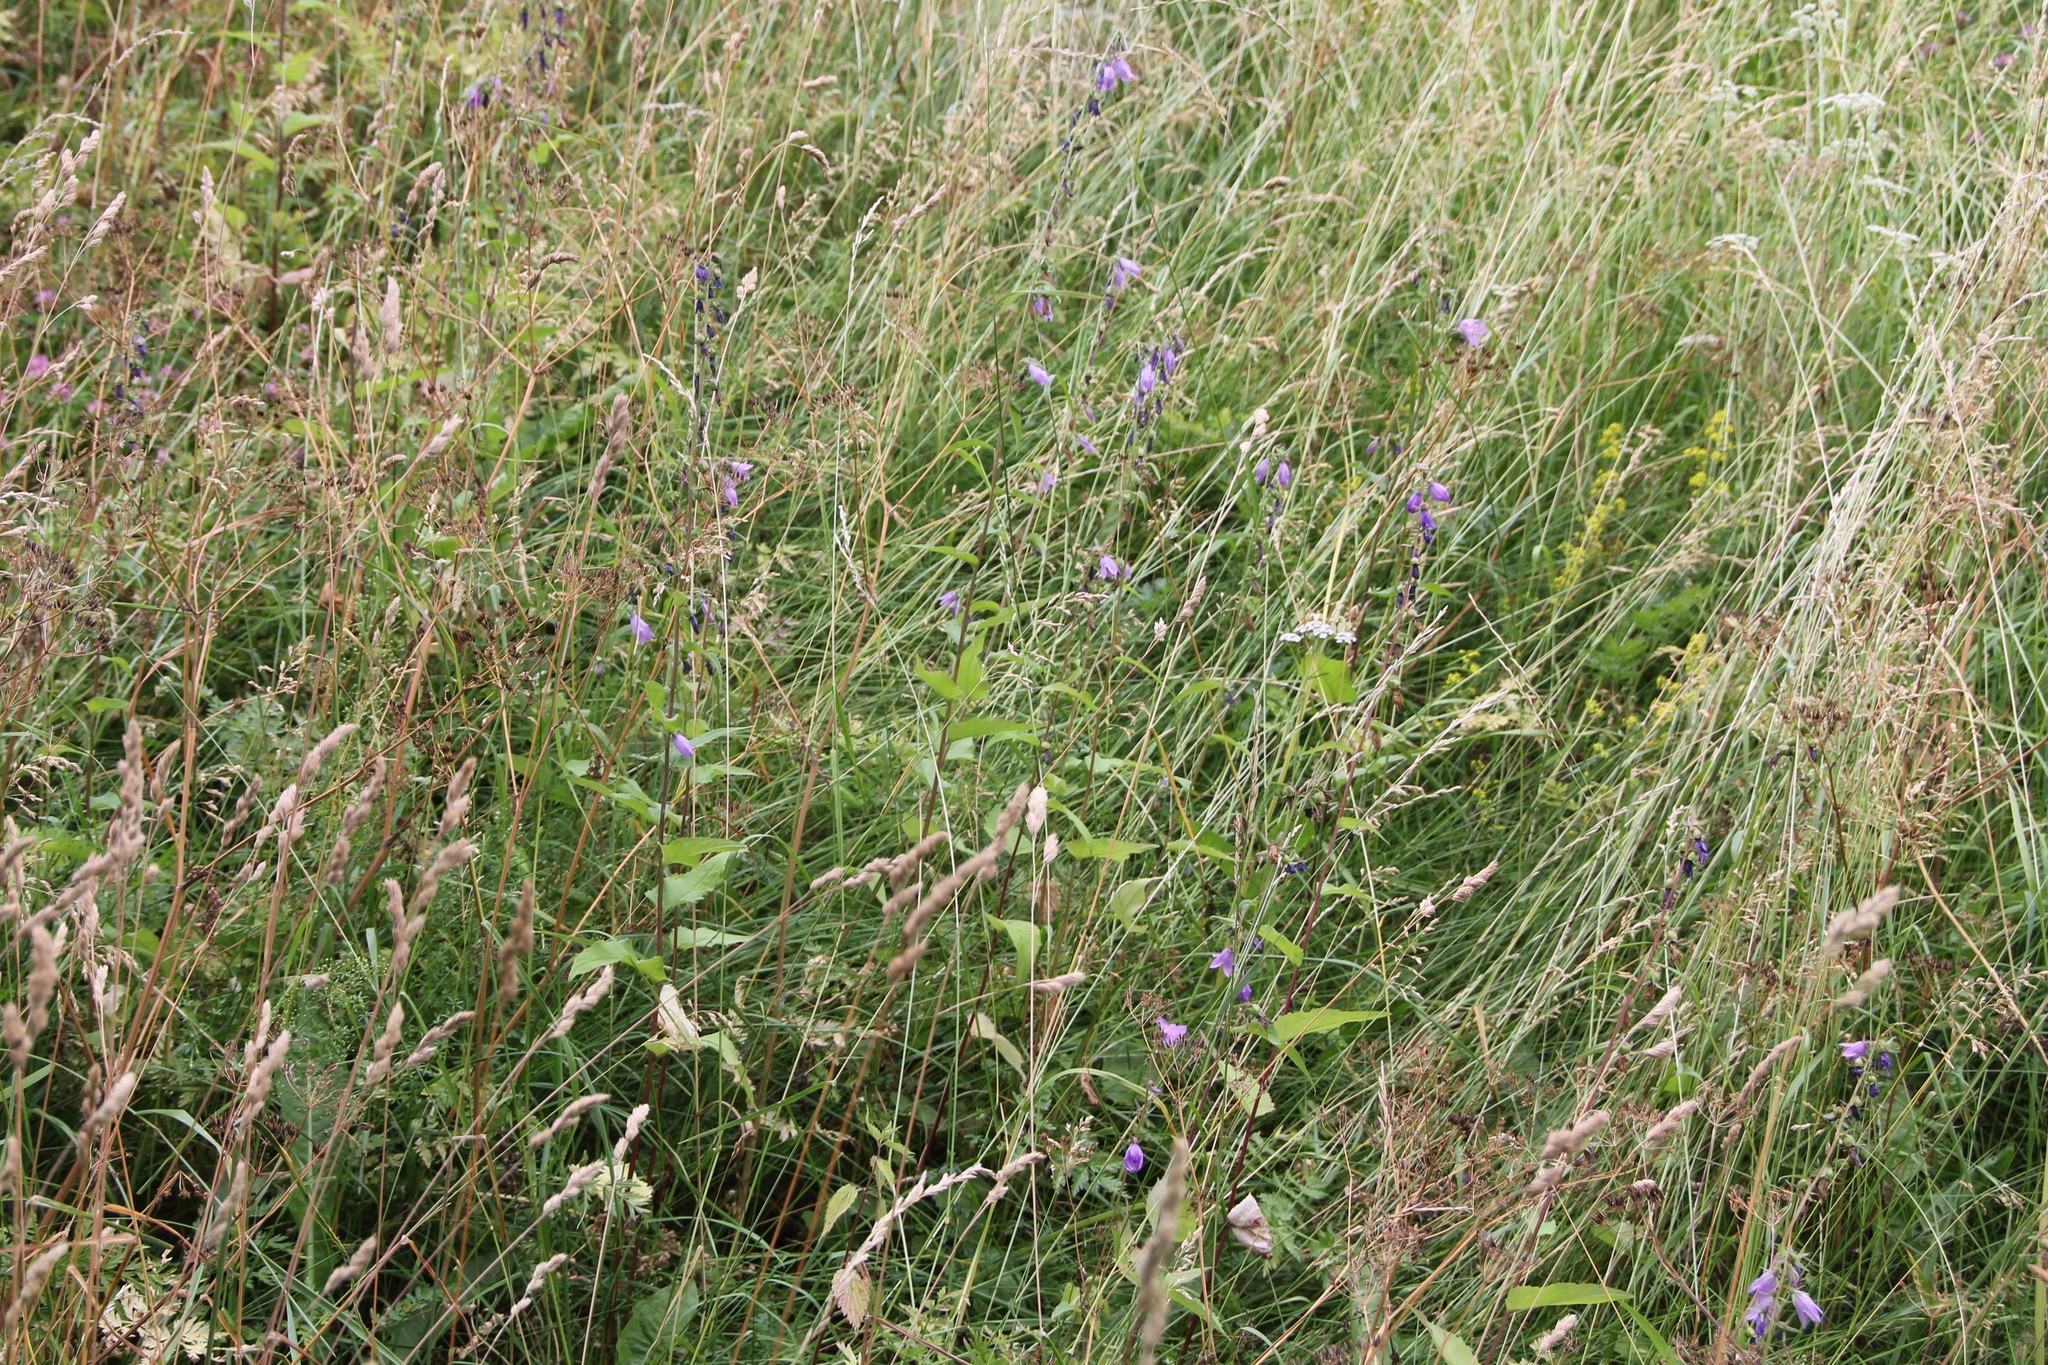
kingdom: Plantae
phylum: Tracheophyta
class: Magnoliopsida
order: Asterales
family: Campanulaceae
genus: Campanula
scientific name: Campanula rapunculoides
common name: Creeping bellflower
